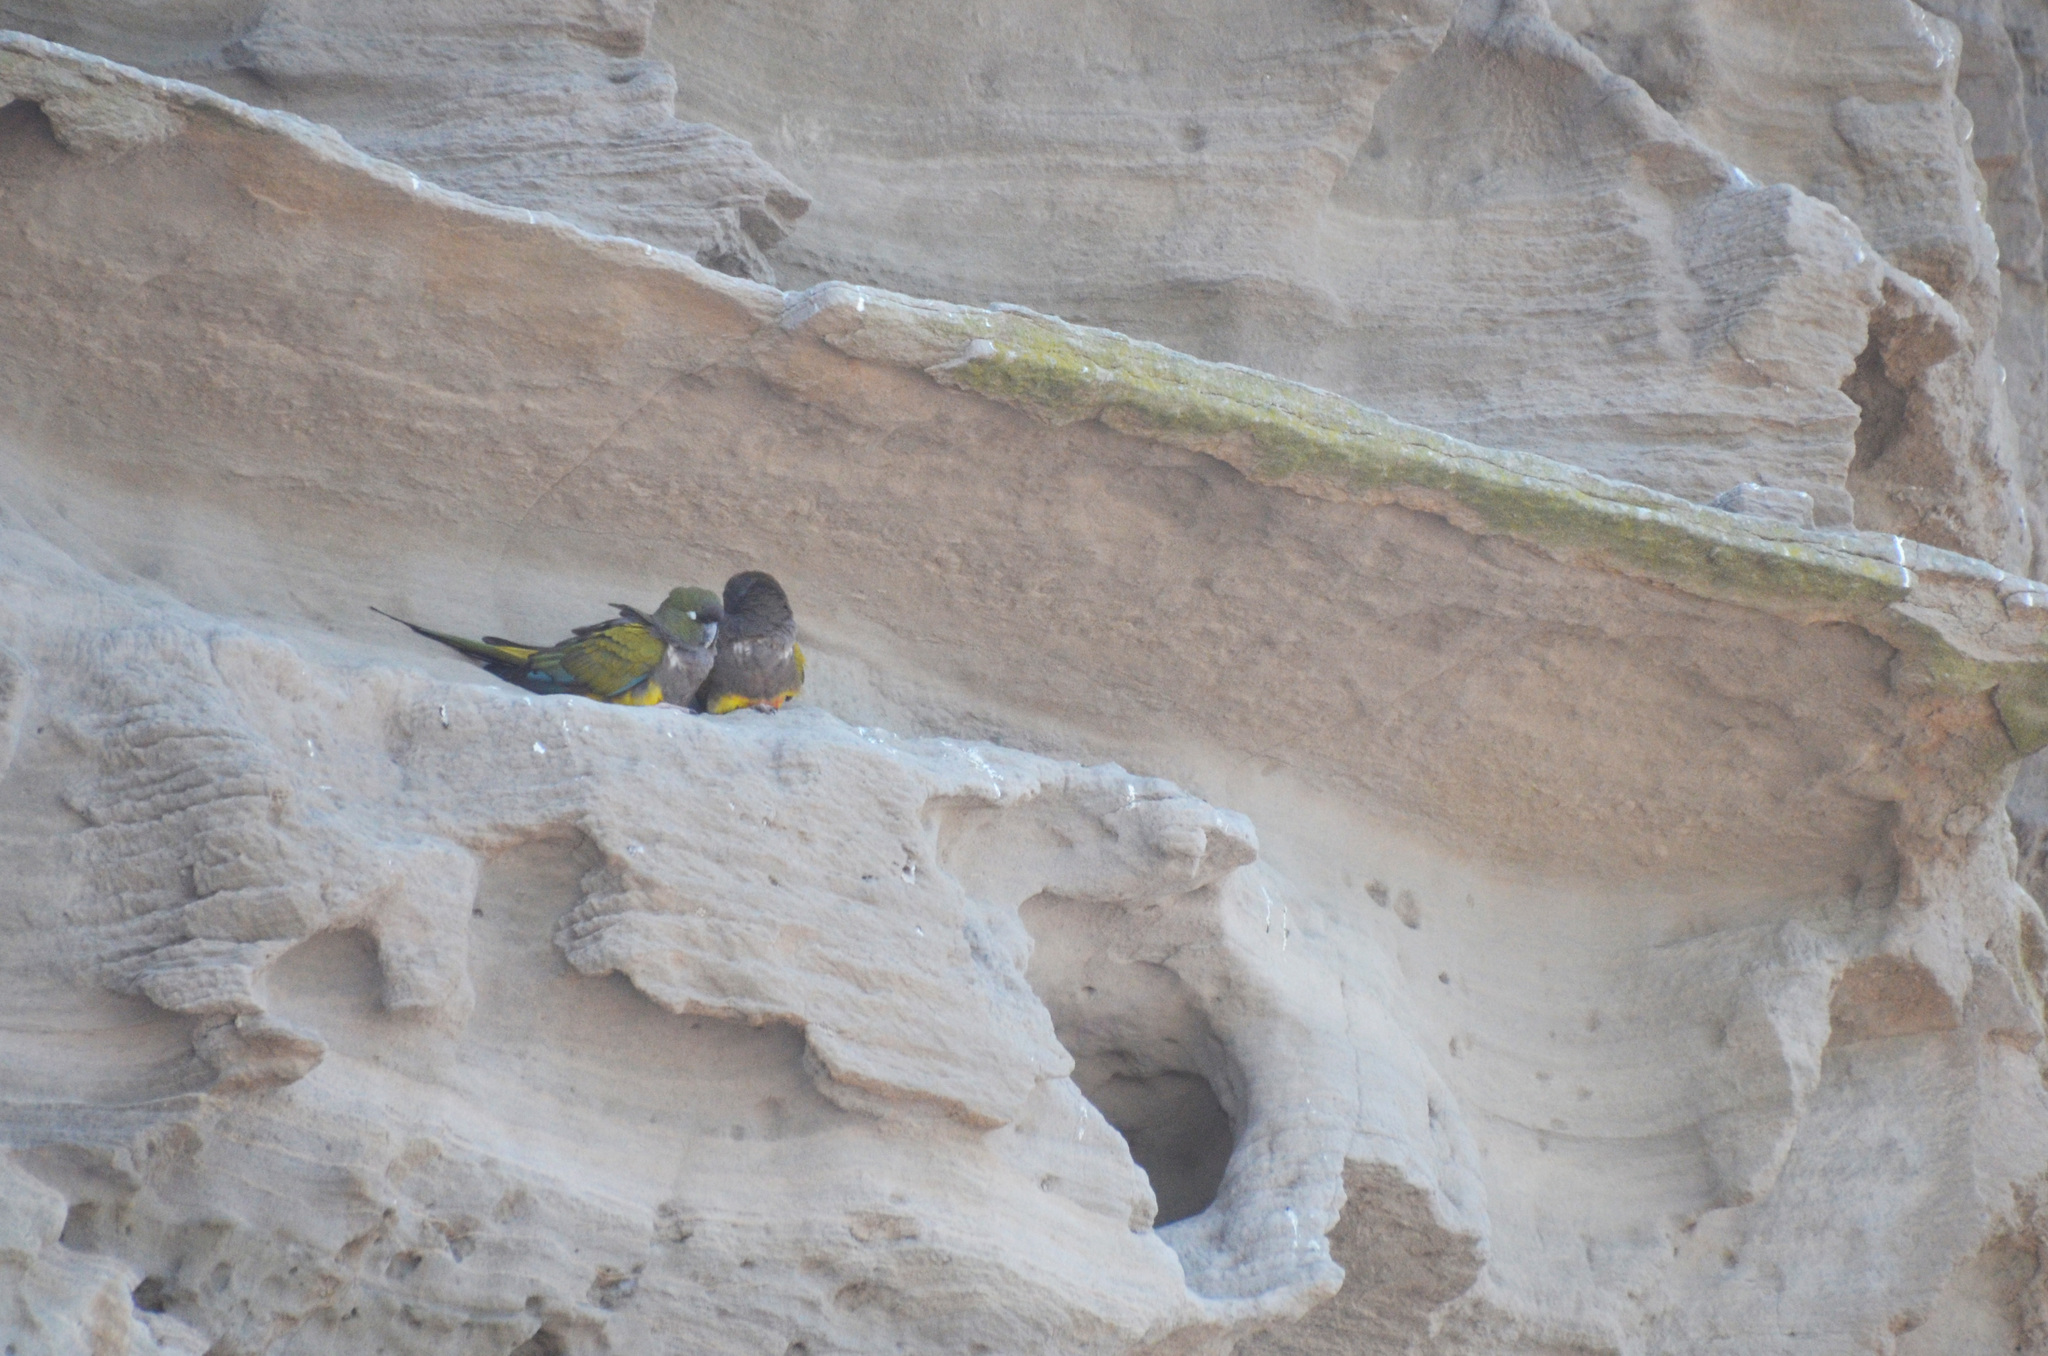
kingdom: Animalia
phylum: Chordata
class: Aves
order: Psittaciformes
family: Psittacidae
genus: Cyanoliseus
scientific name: Cyanoliseus patagonus
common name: Burrowing parrot
